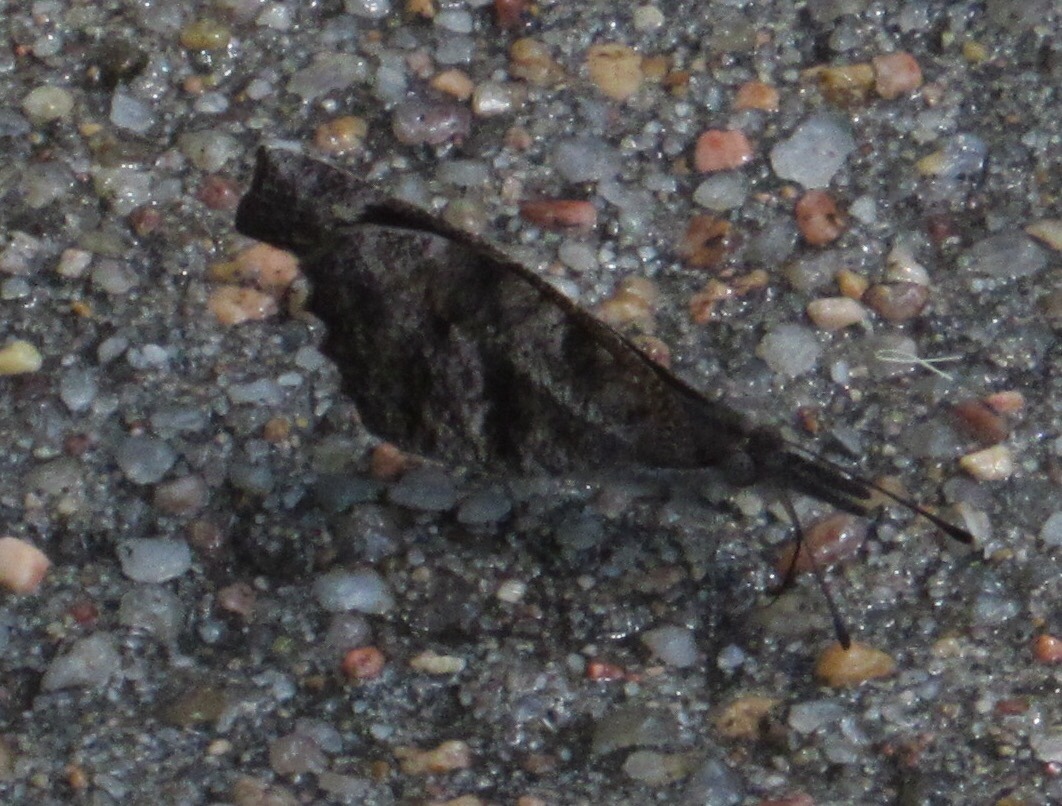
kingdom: Animalia
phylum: Arthropoda
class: Insecta
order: Lepidoptera
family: Nymphalidae
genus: Libytheana
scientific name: Libytheana carinenta
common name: American snout
